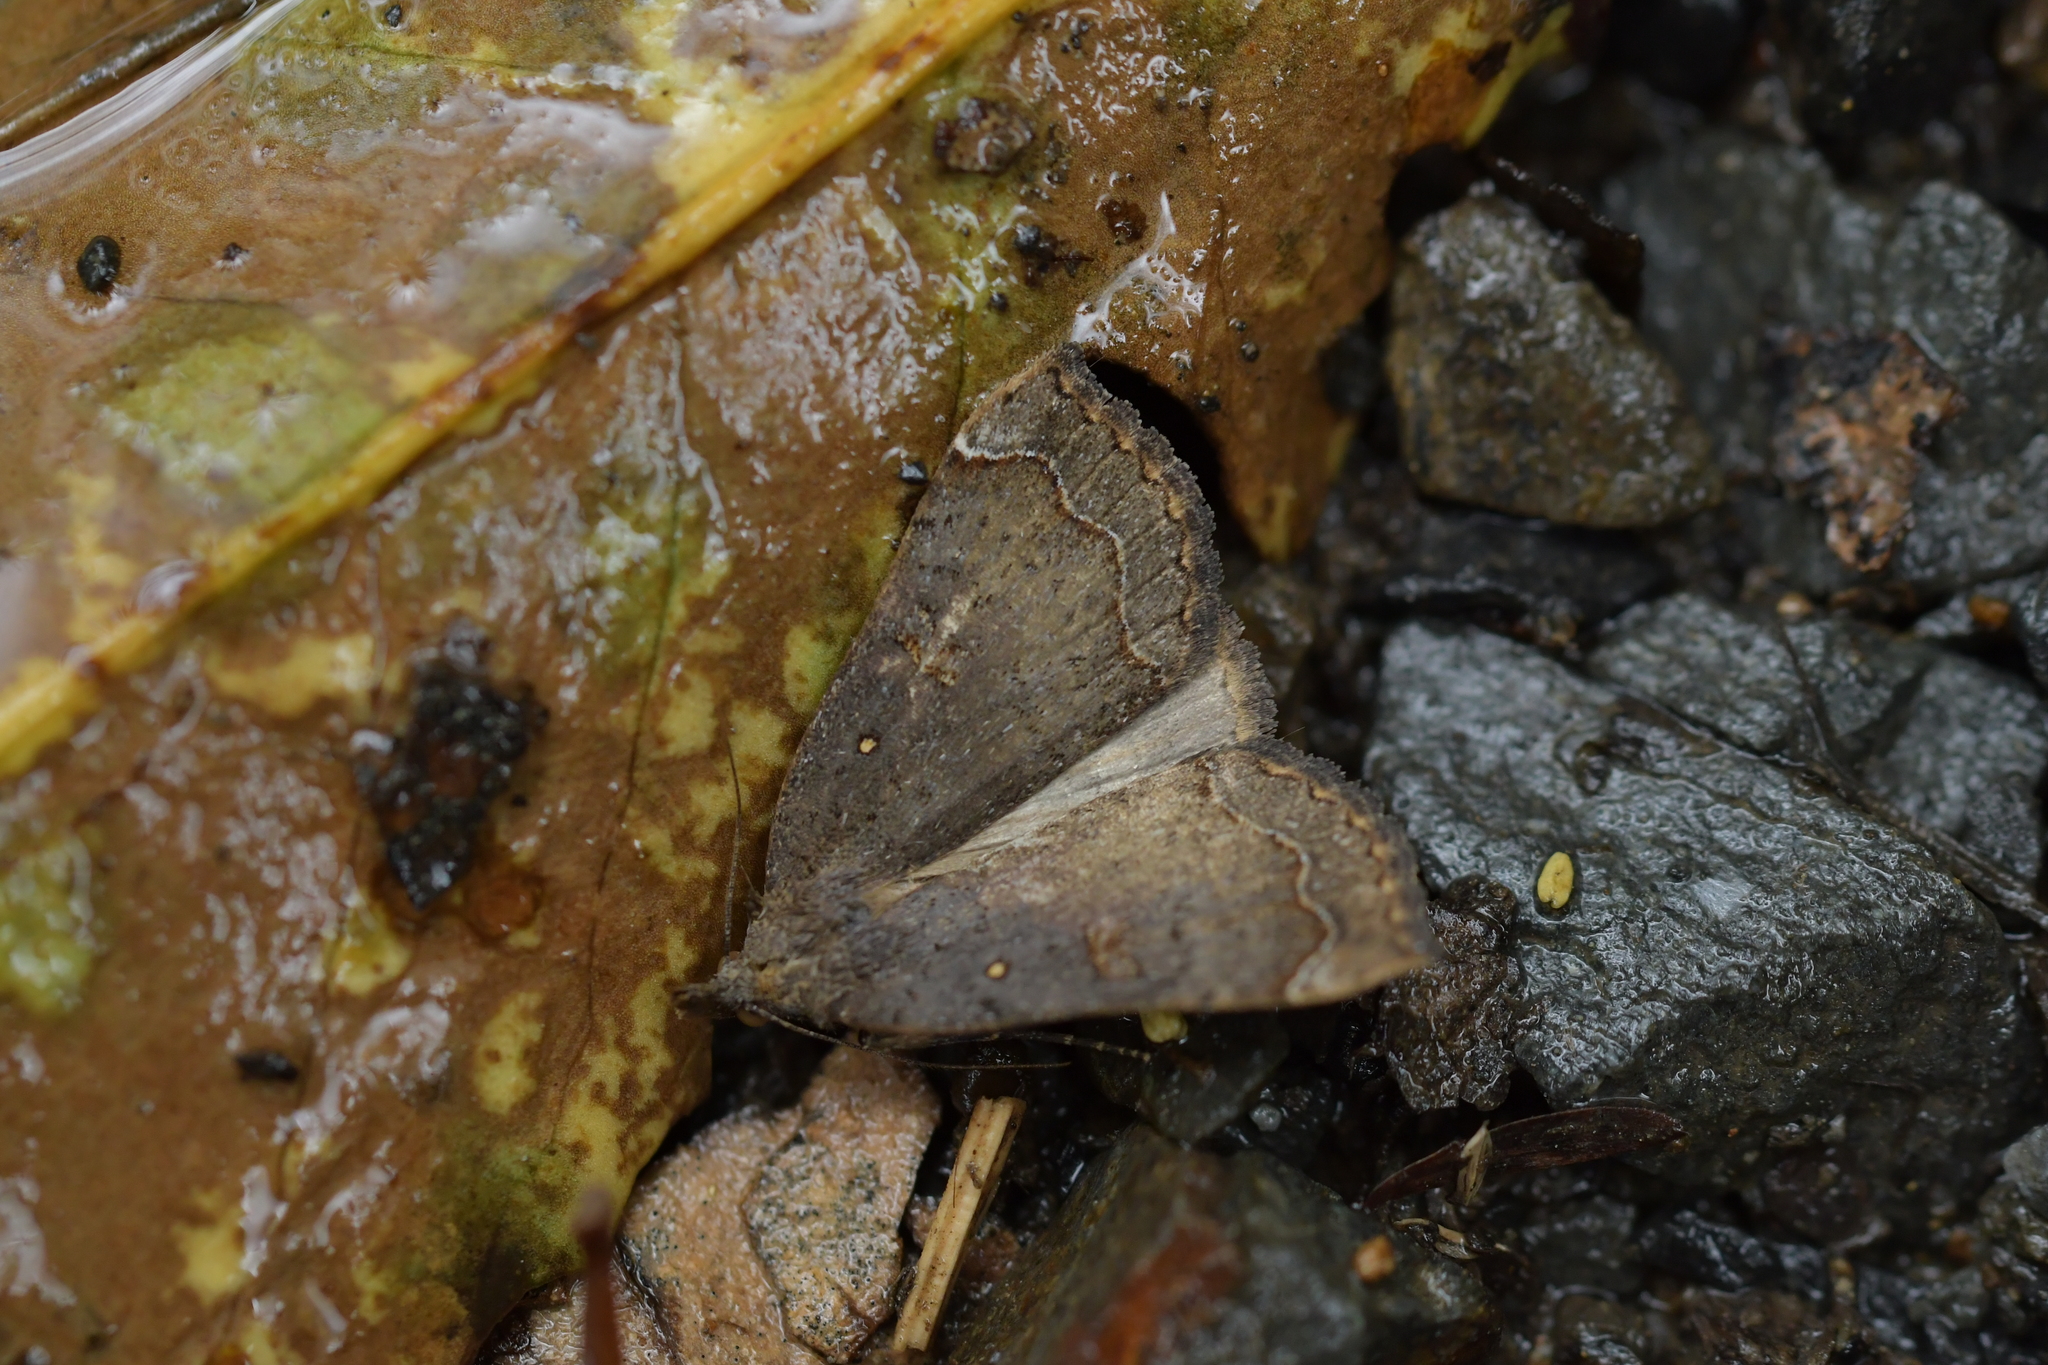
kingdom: Animalia
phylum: Arthropoda
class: Insecta
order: Lepidoptera
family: Erebidae
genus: Rhapsa
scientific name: Rhapsa scotosialis
